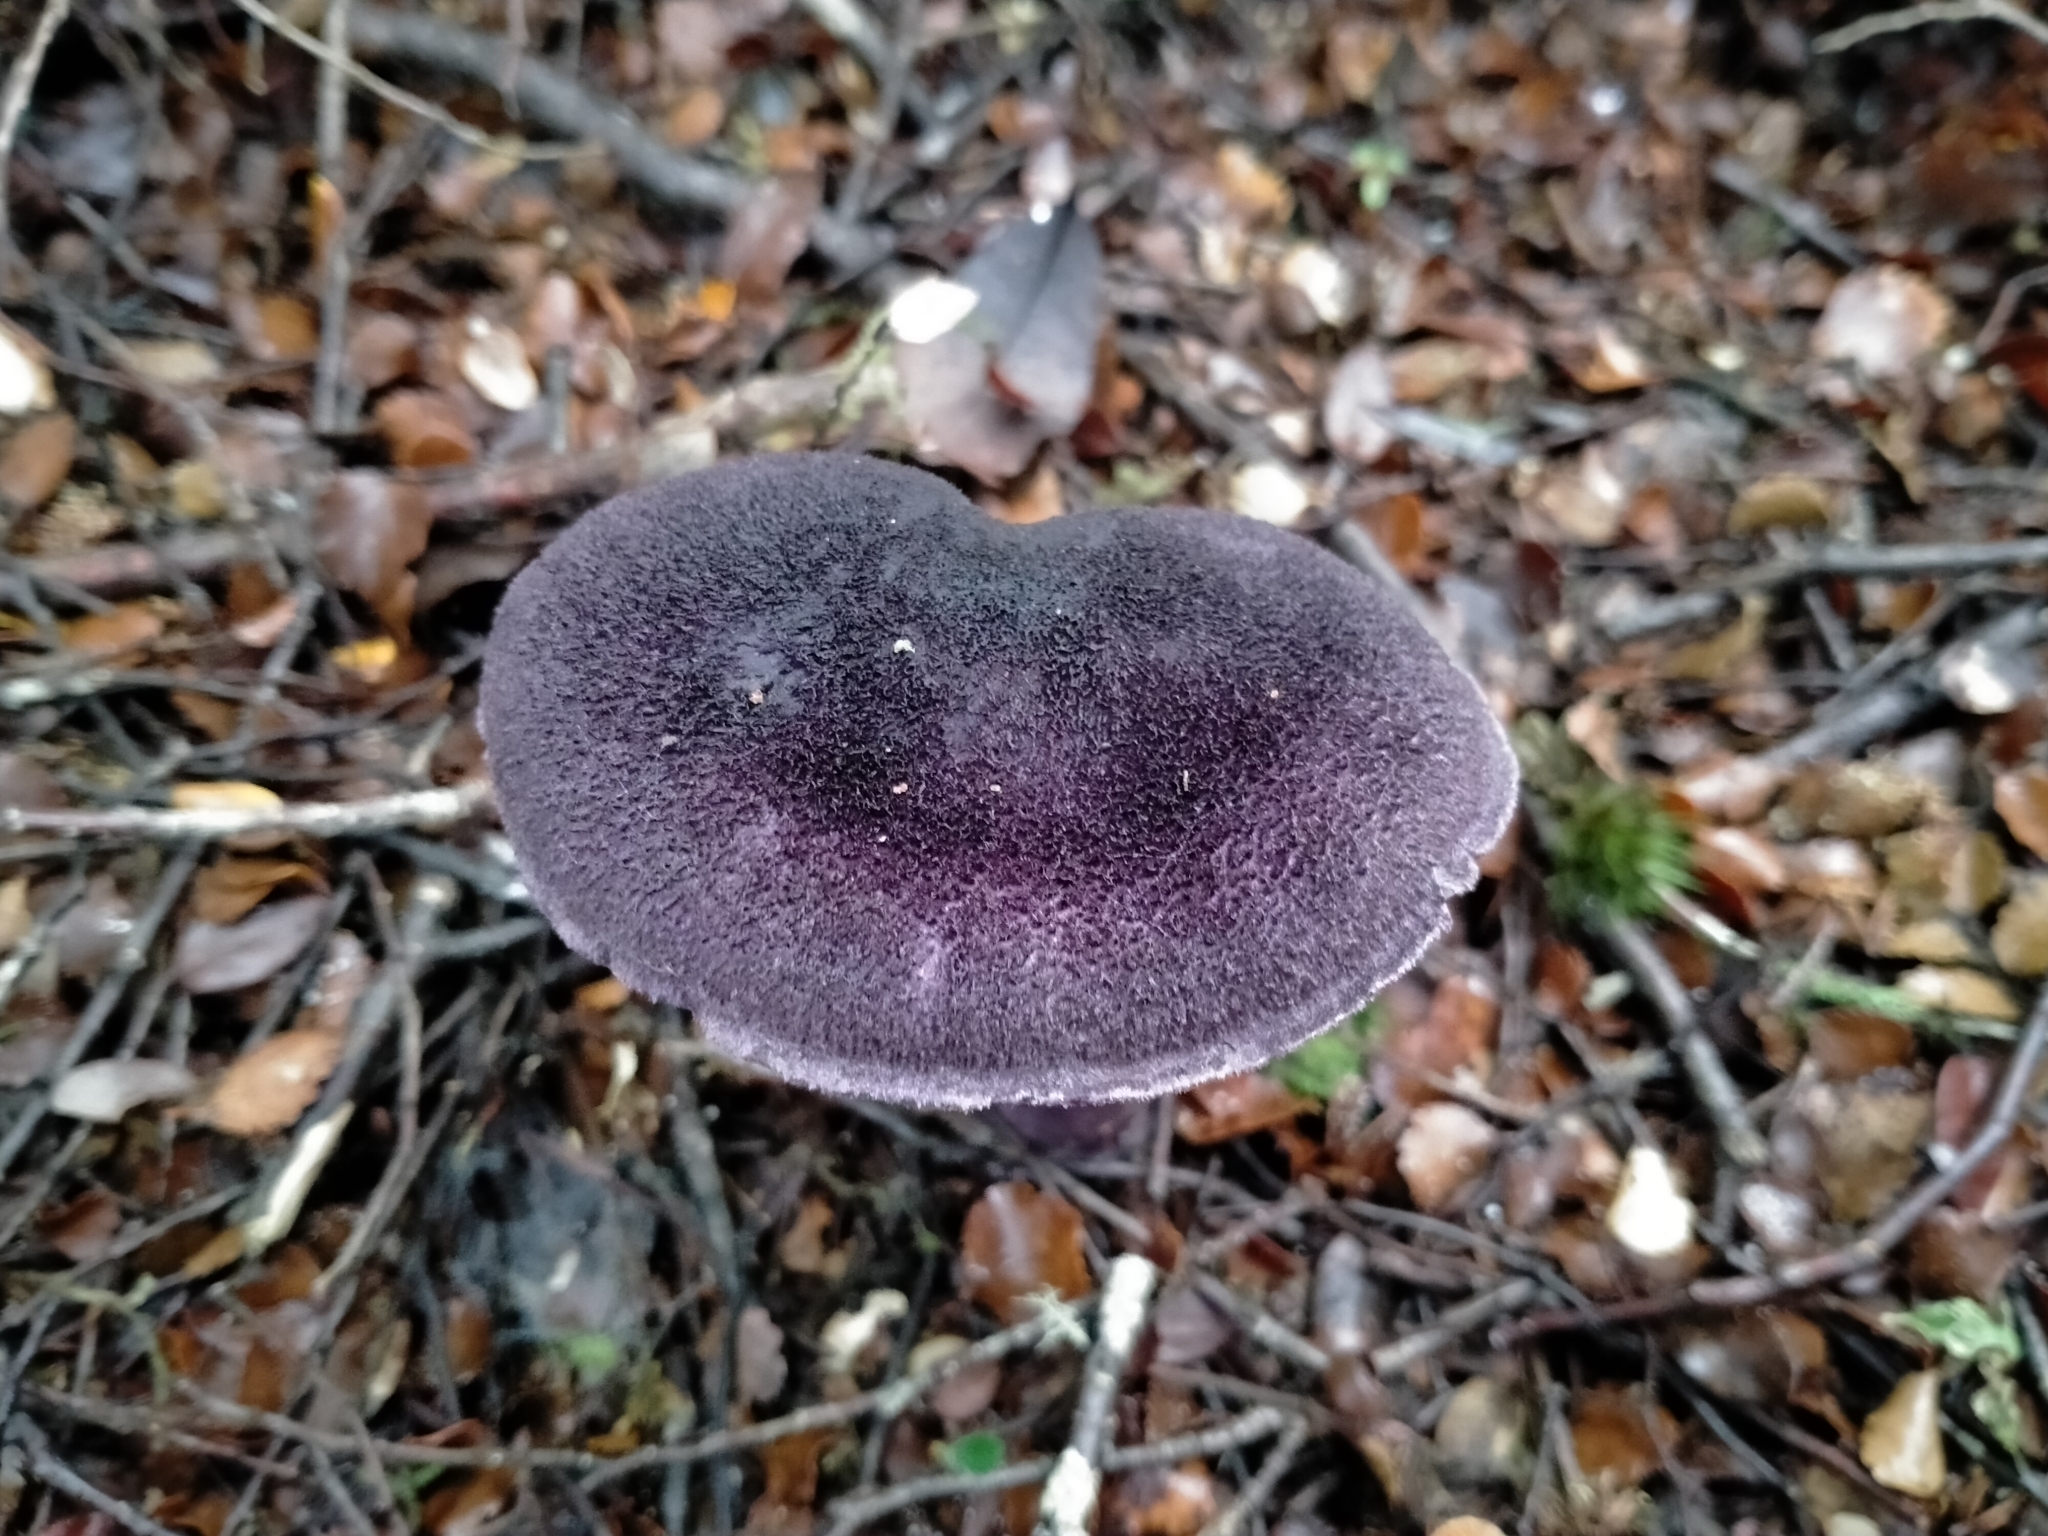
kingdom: Fungi
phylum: Basidiomycota
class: Agaricomycetes
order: Agaricales
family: Cortinariaceae
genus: Cortinarius
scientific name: Cortinarius carneipallidus
